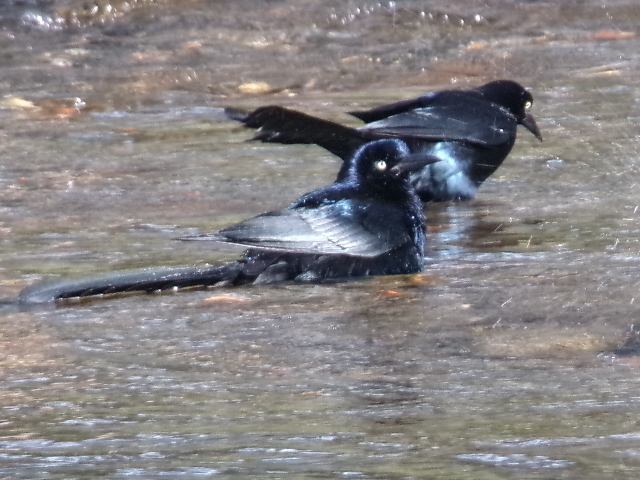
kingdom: Animalia
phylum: Chordata
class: Aves
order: Passeriformes
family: Icteridae
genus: Quiscalus
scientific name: Quiscalus mexicanus
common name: Great-tailed grackle
